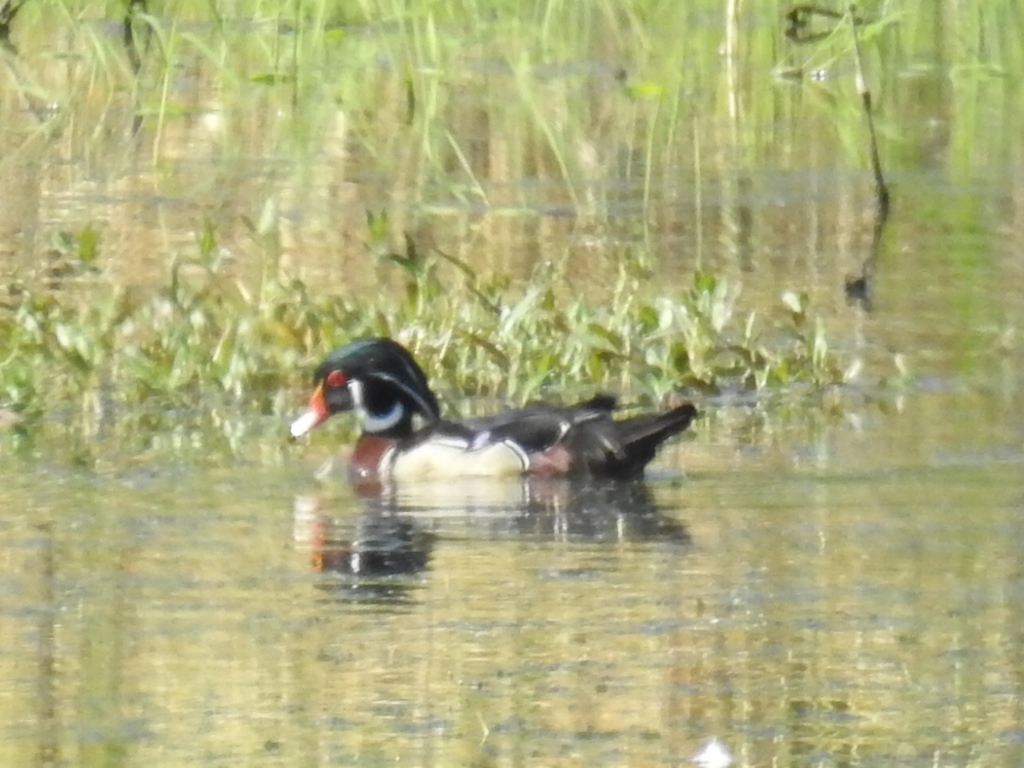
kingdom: Animalia
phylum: Chordata
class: Aves
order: Anseriformes
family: Anatidae
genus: Aix
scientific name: Aix sponsa
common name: Wood duck
